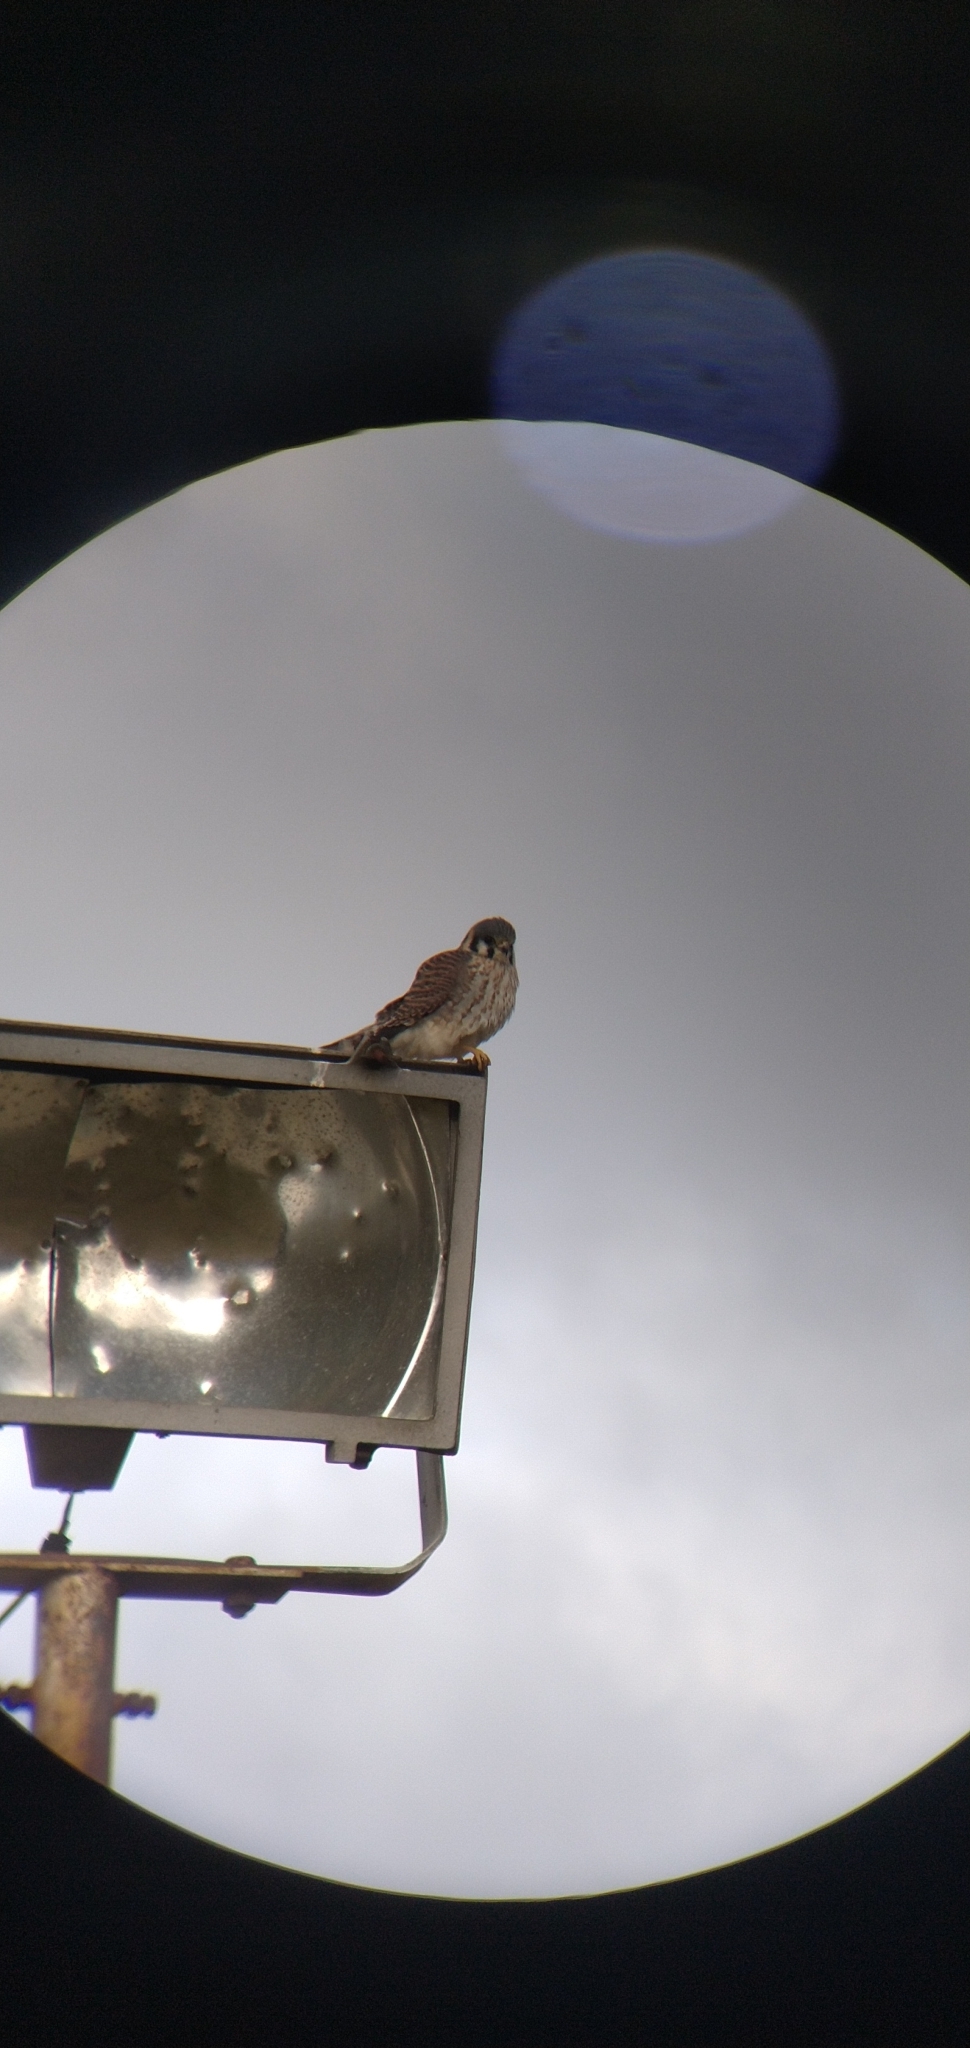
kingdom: Animalia
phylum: Chordata
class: Aves
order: Falconiformes
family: Falconidae
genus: Falco
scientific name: Falco sparverius
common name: American kestrel
